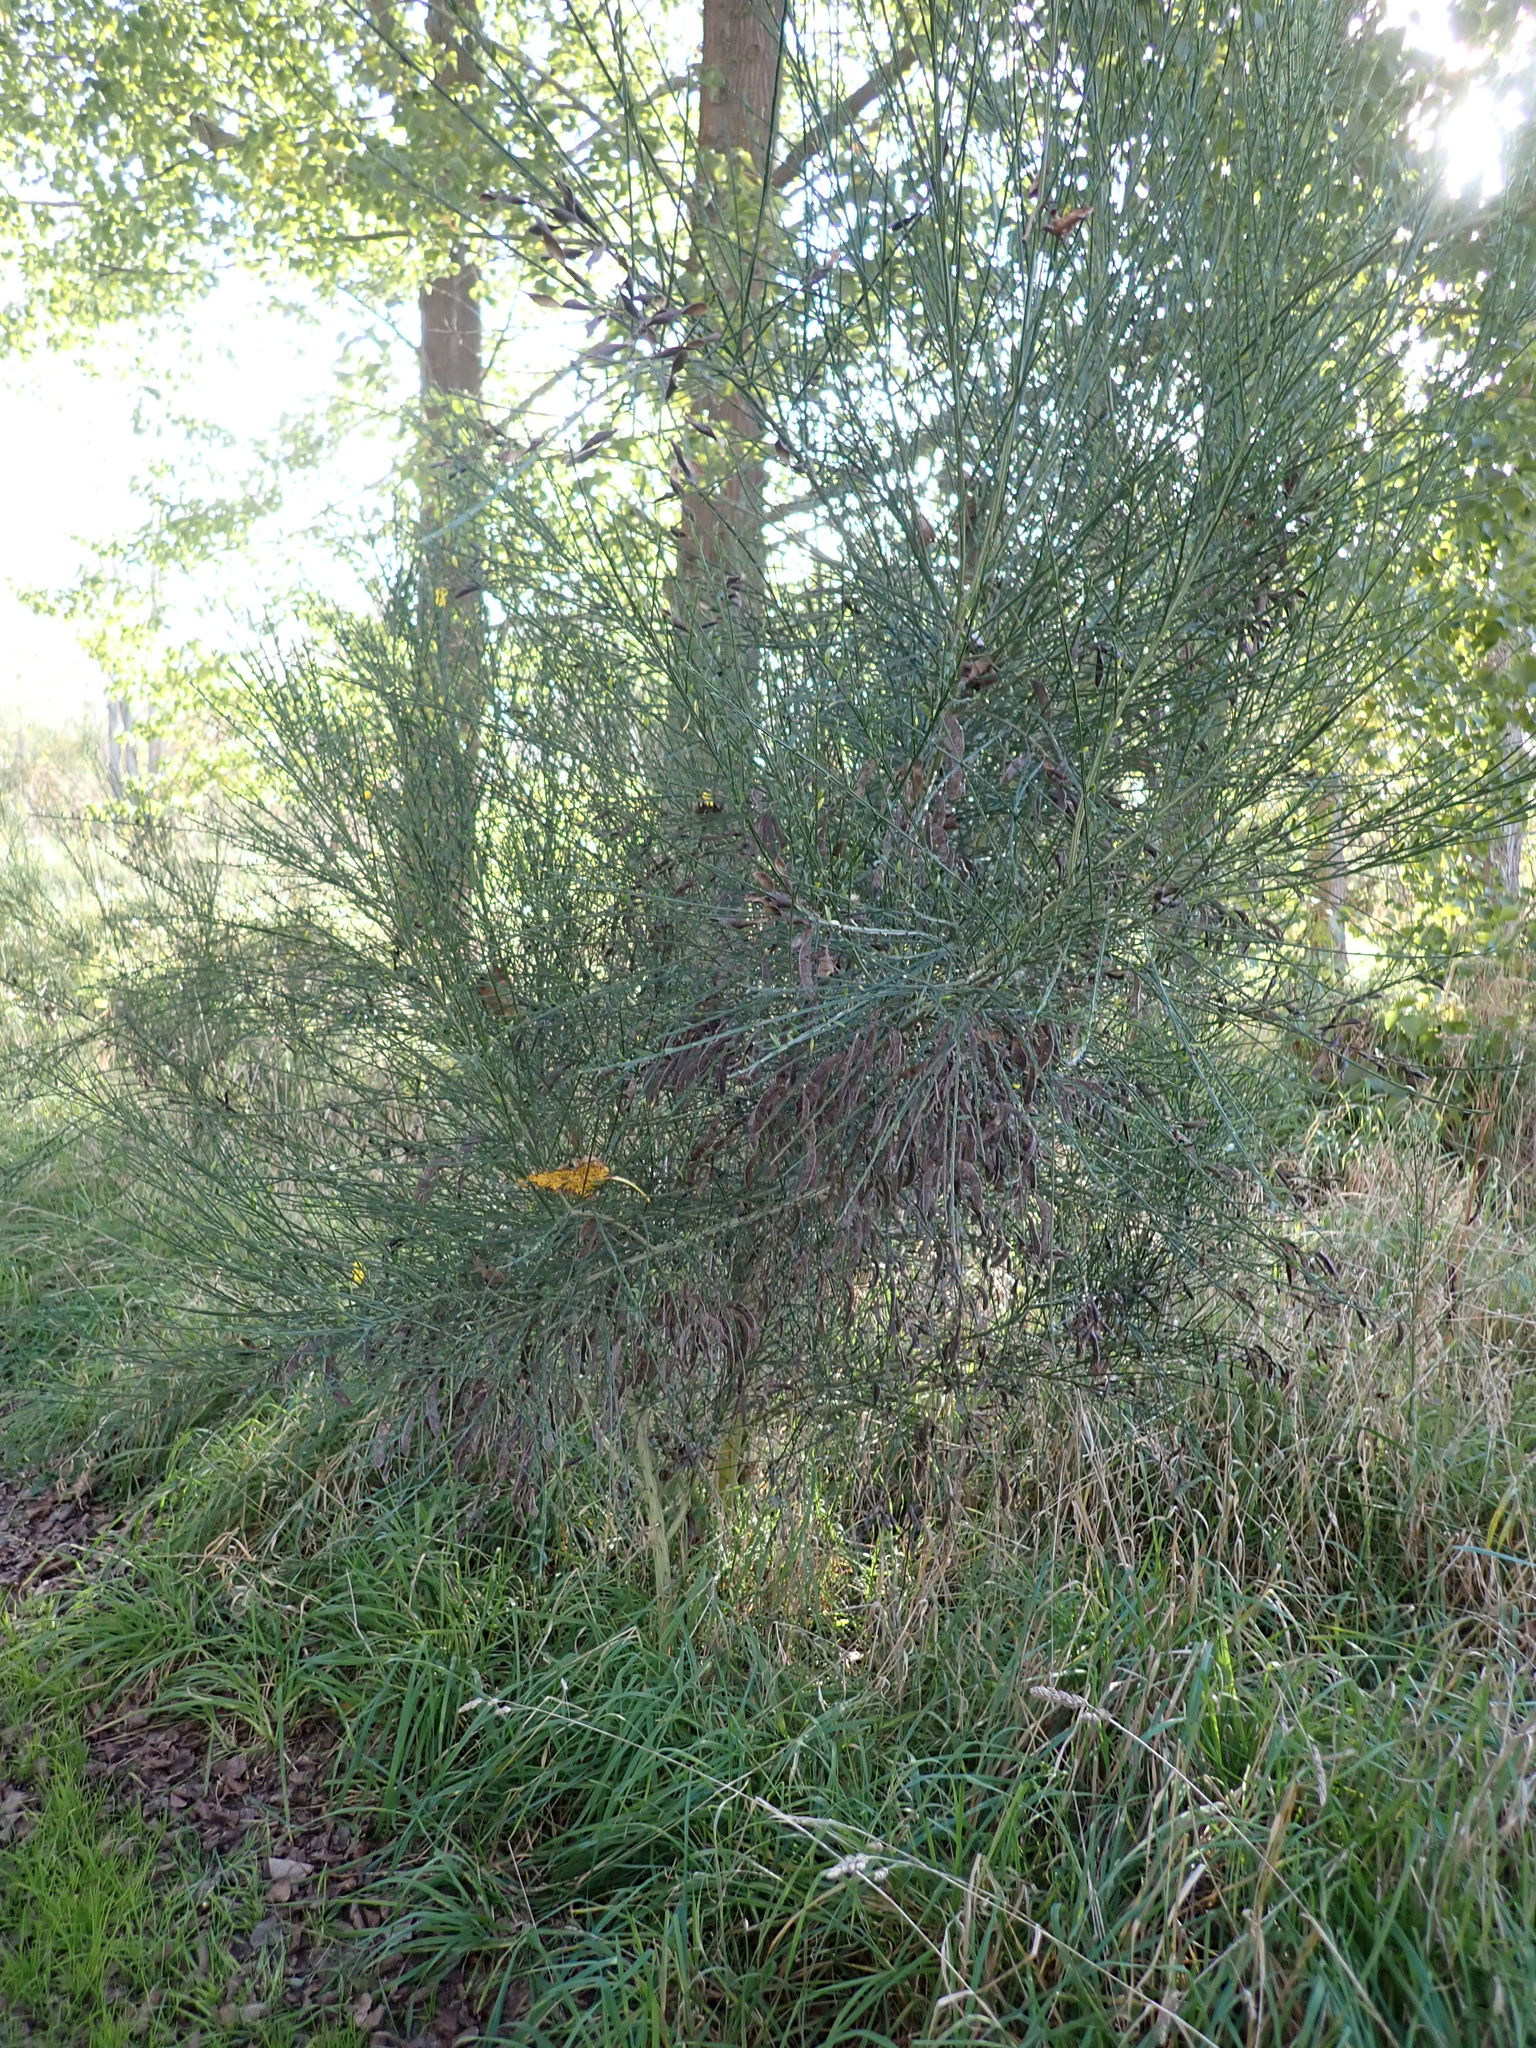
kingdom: Plantae
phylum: Tracheophyta
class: Magnoliopsida
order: Fabales
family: Fabaceae
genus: Cytisus
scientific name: Cytisus scoparius
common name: Scotch broom
